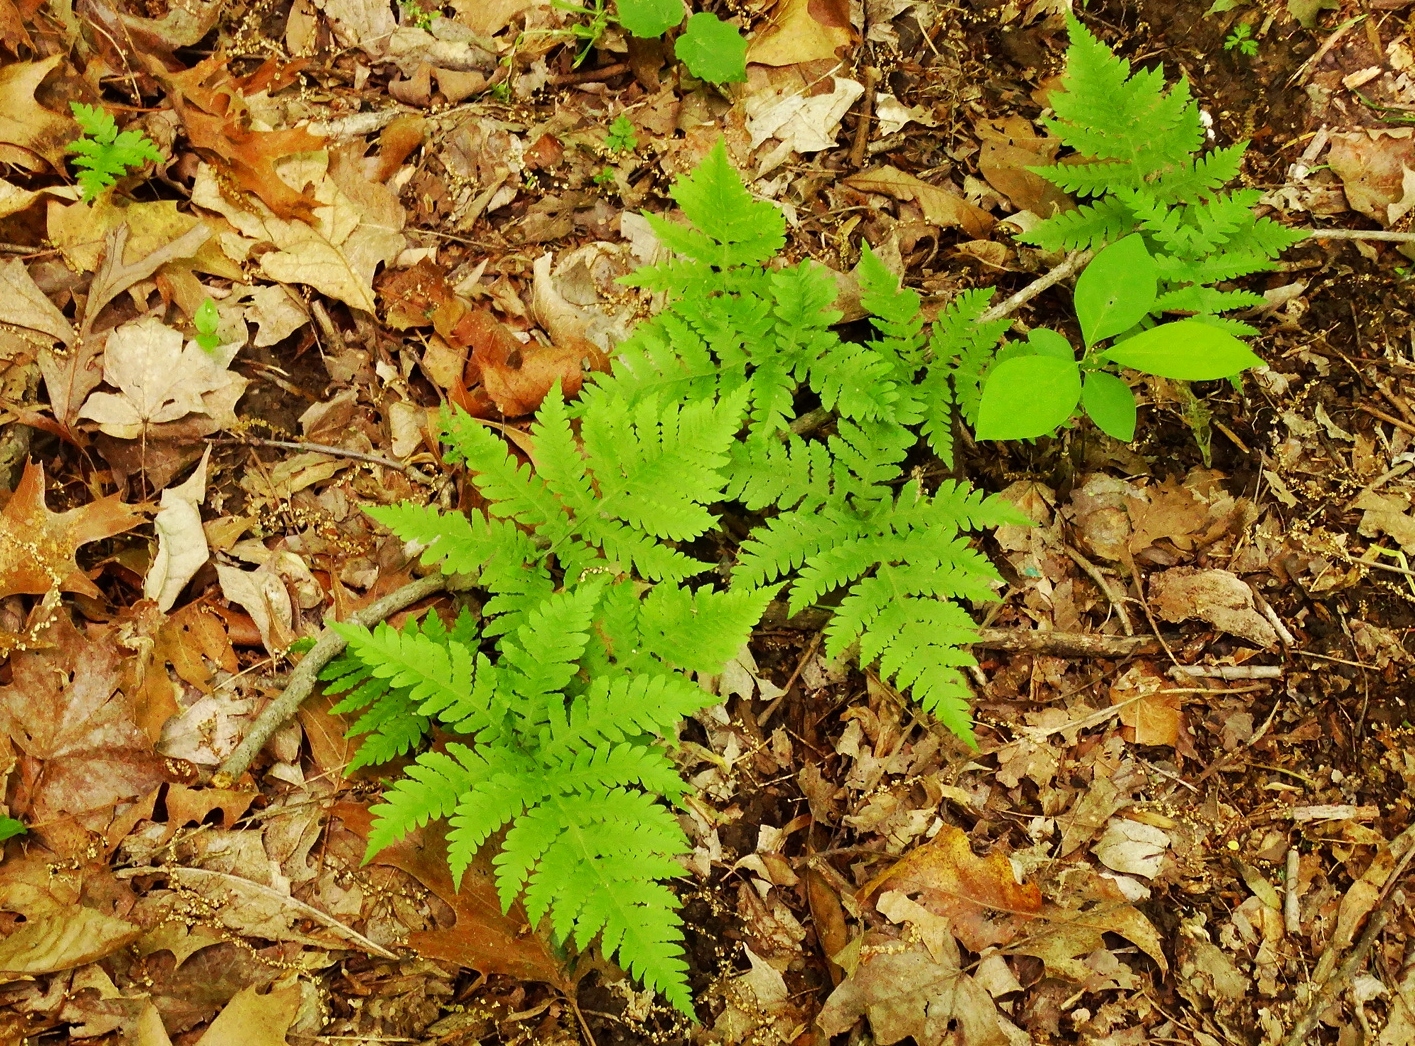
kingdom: Plantae
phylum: Tracheophyta
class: Polypodiopsida
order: Polypodiales
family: Thelypteridaceae
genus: Phegopteris
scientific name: Phegopteris hexagonoptera
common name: Broad beech fern
